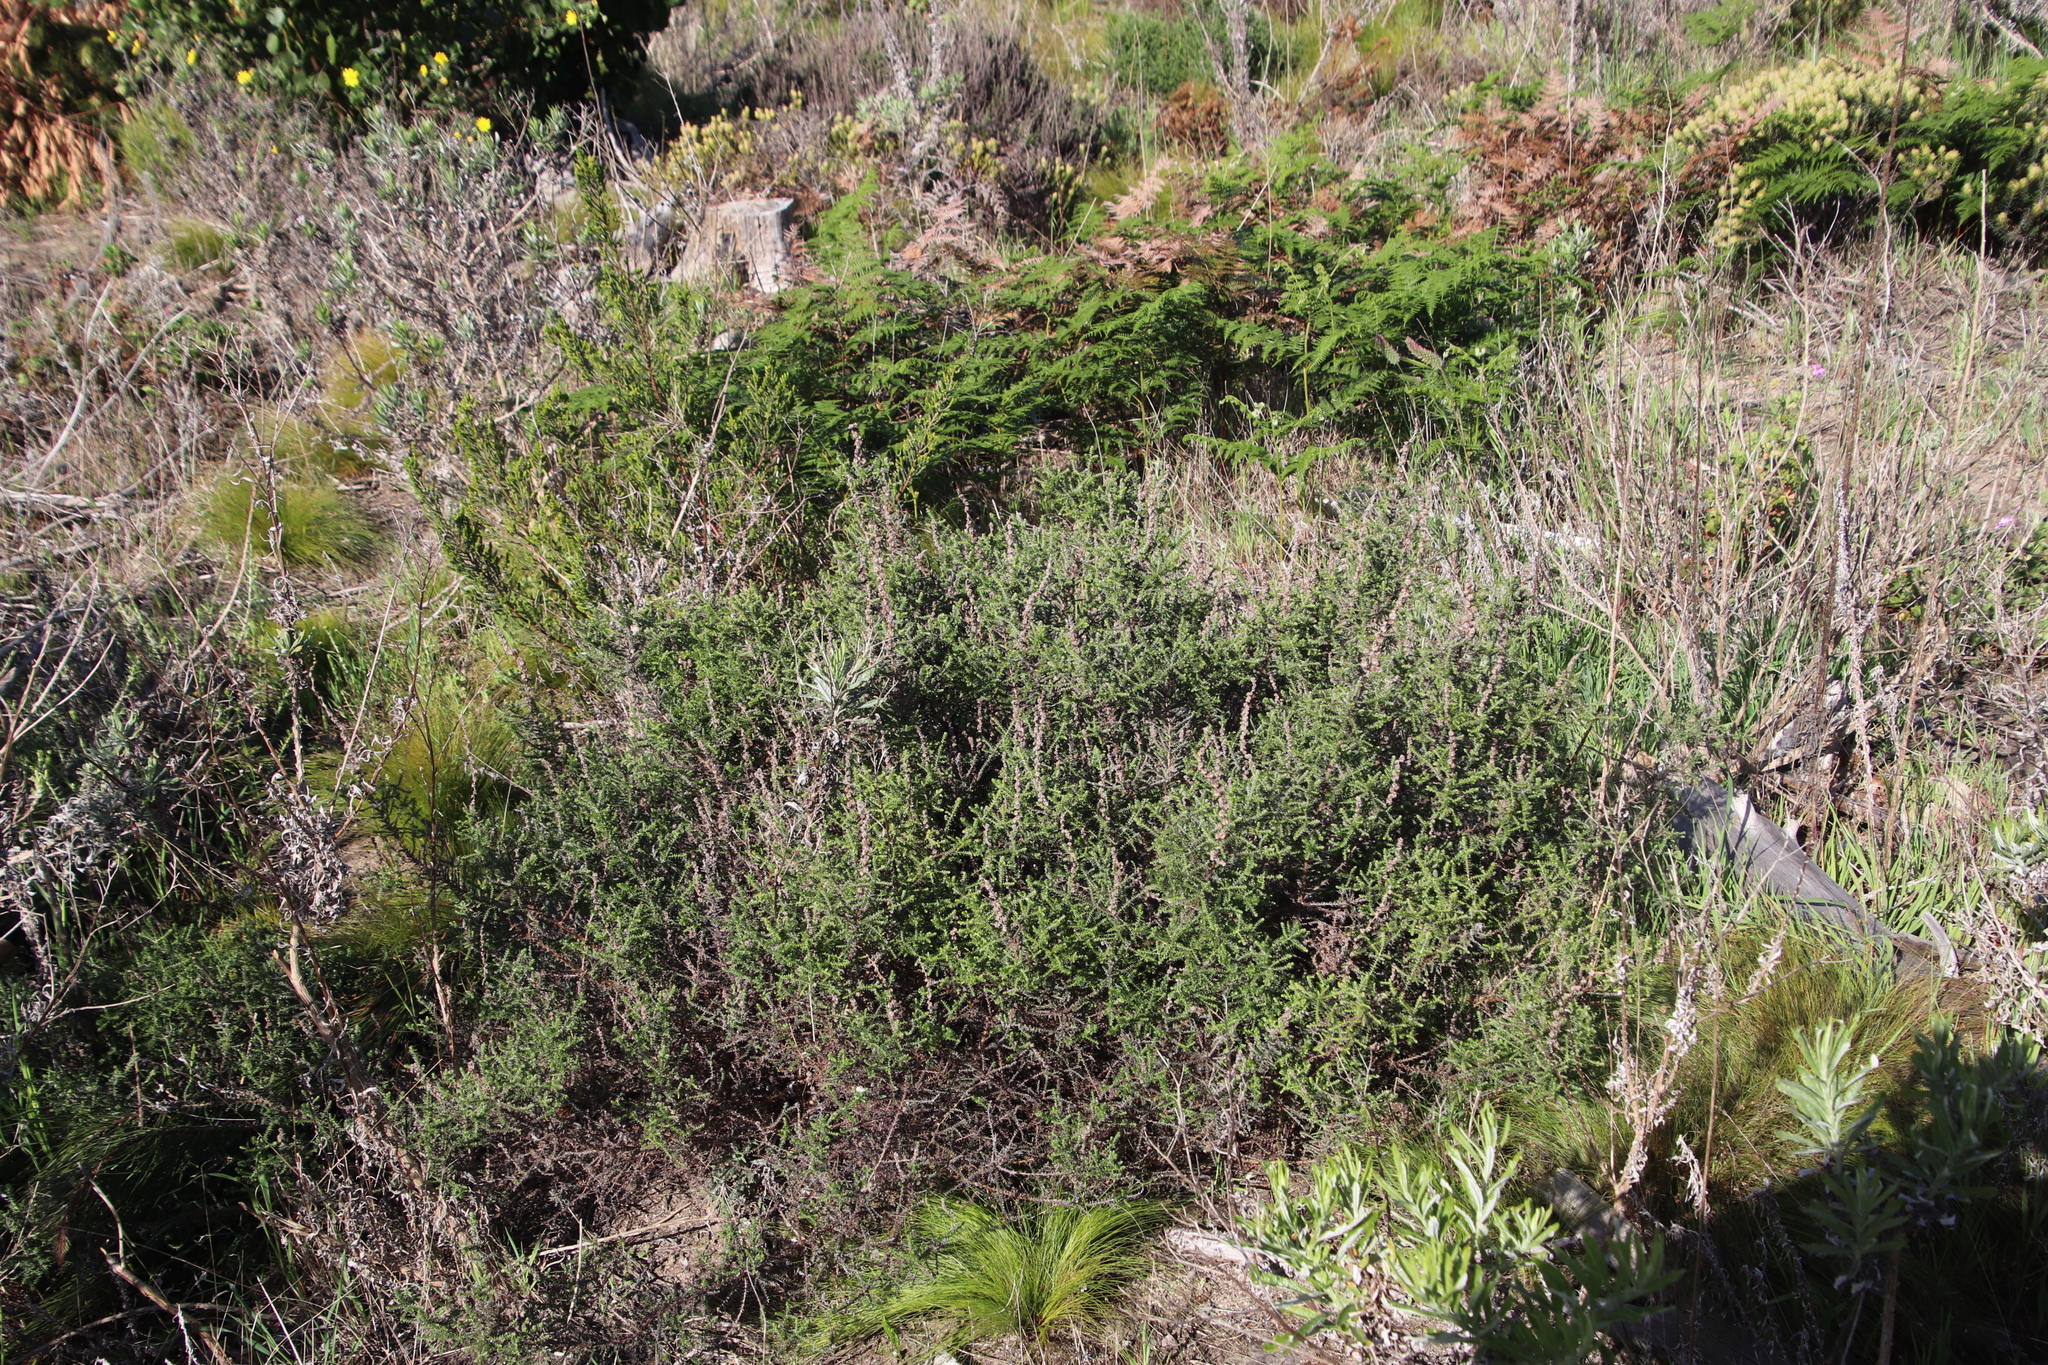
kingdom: Plantae
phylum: Tracheophyta
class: Magnoliopsida
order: Asterales
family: Asteraceae
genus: Seriphium
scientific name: Seriphium cinereum
